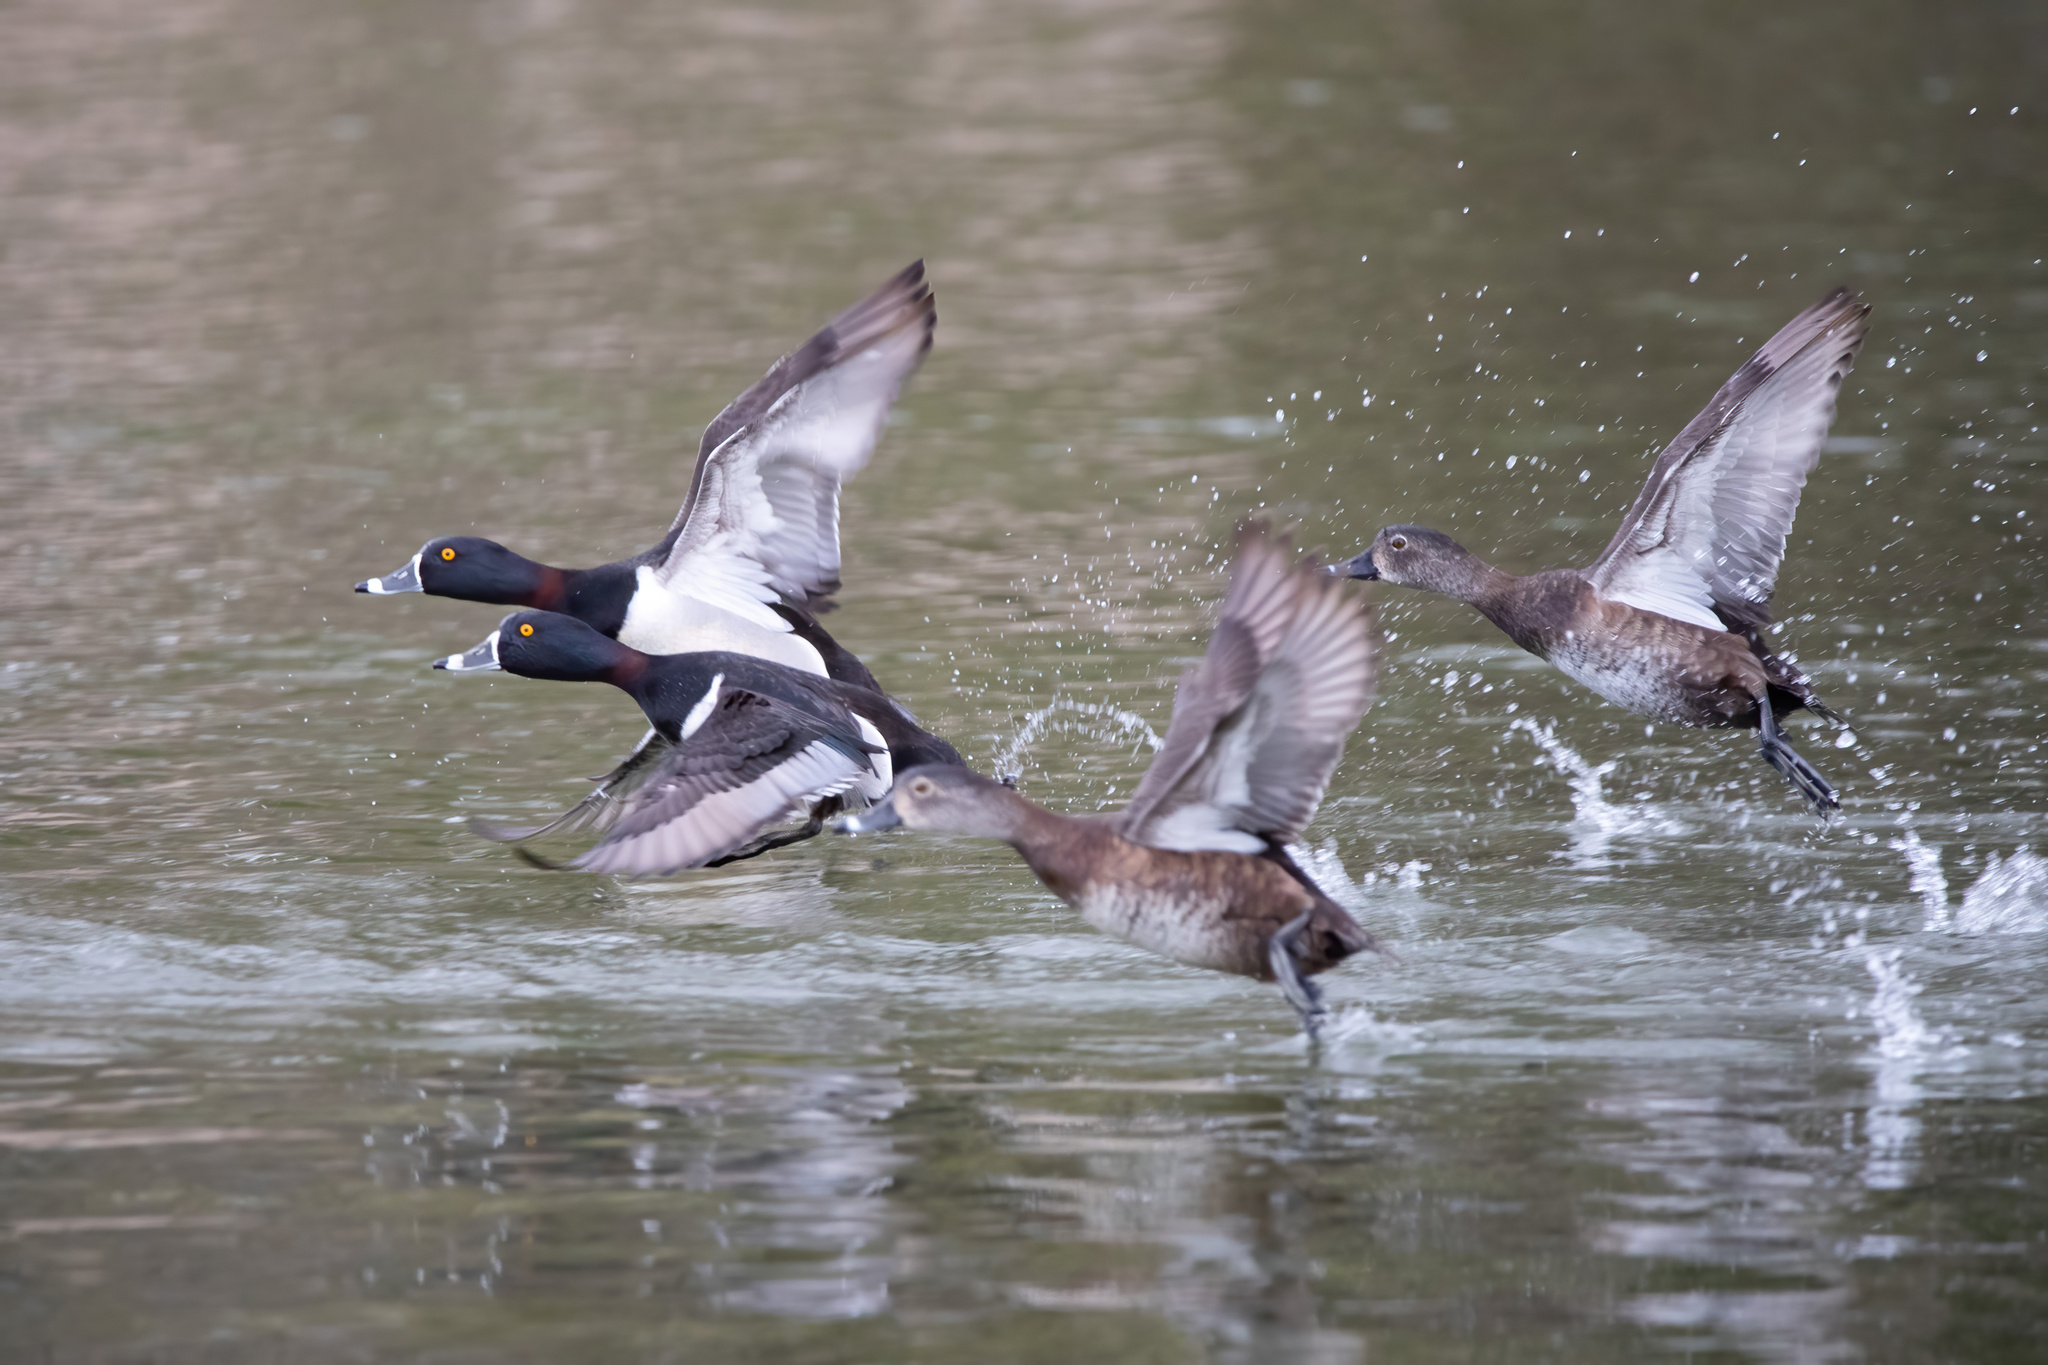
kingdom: Animalia
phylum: Chordata
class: Aves
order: Anseriformes
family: Anatidae
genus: Aythya
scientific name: Aythya collaris
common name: Ring-necked duck
